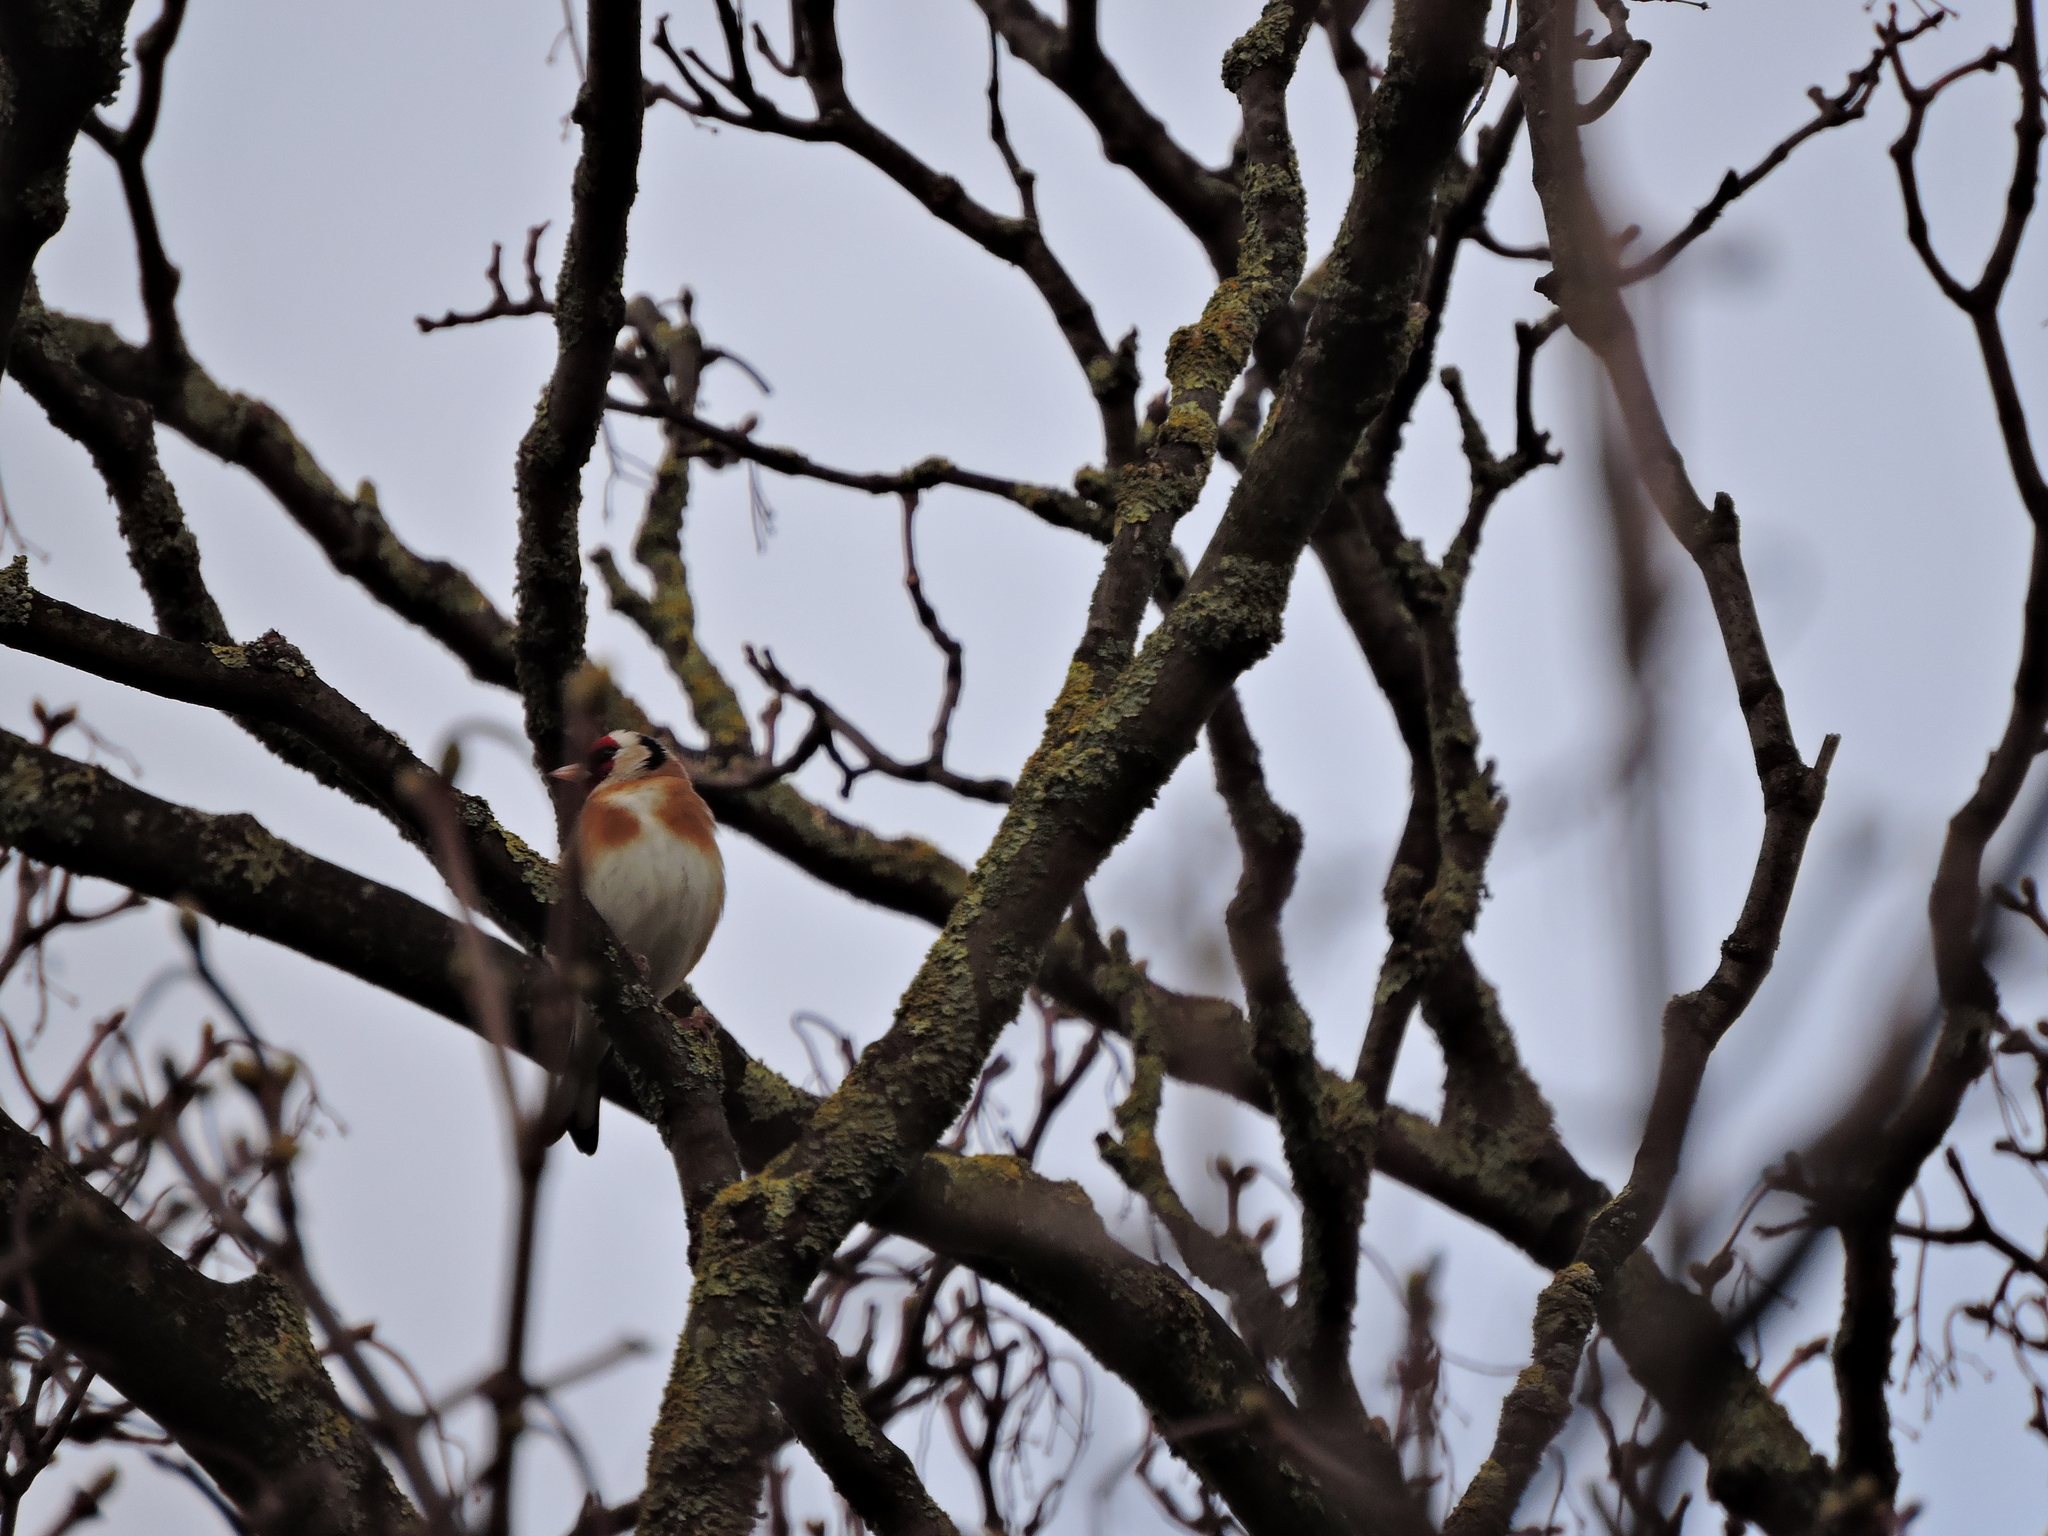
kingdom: Animalia
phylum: Chordata
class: Aves
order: Passeriformes
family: Fringillidae
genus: Carduelis
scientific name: Carduelis carduelis
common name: European goldfinch
